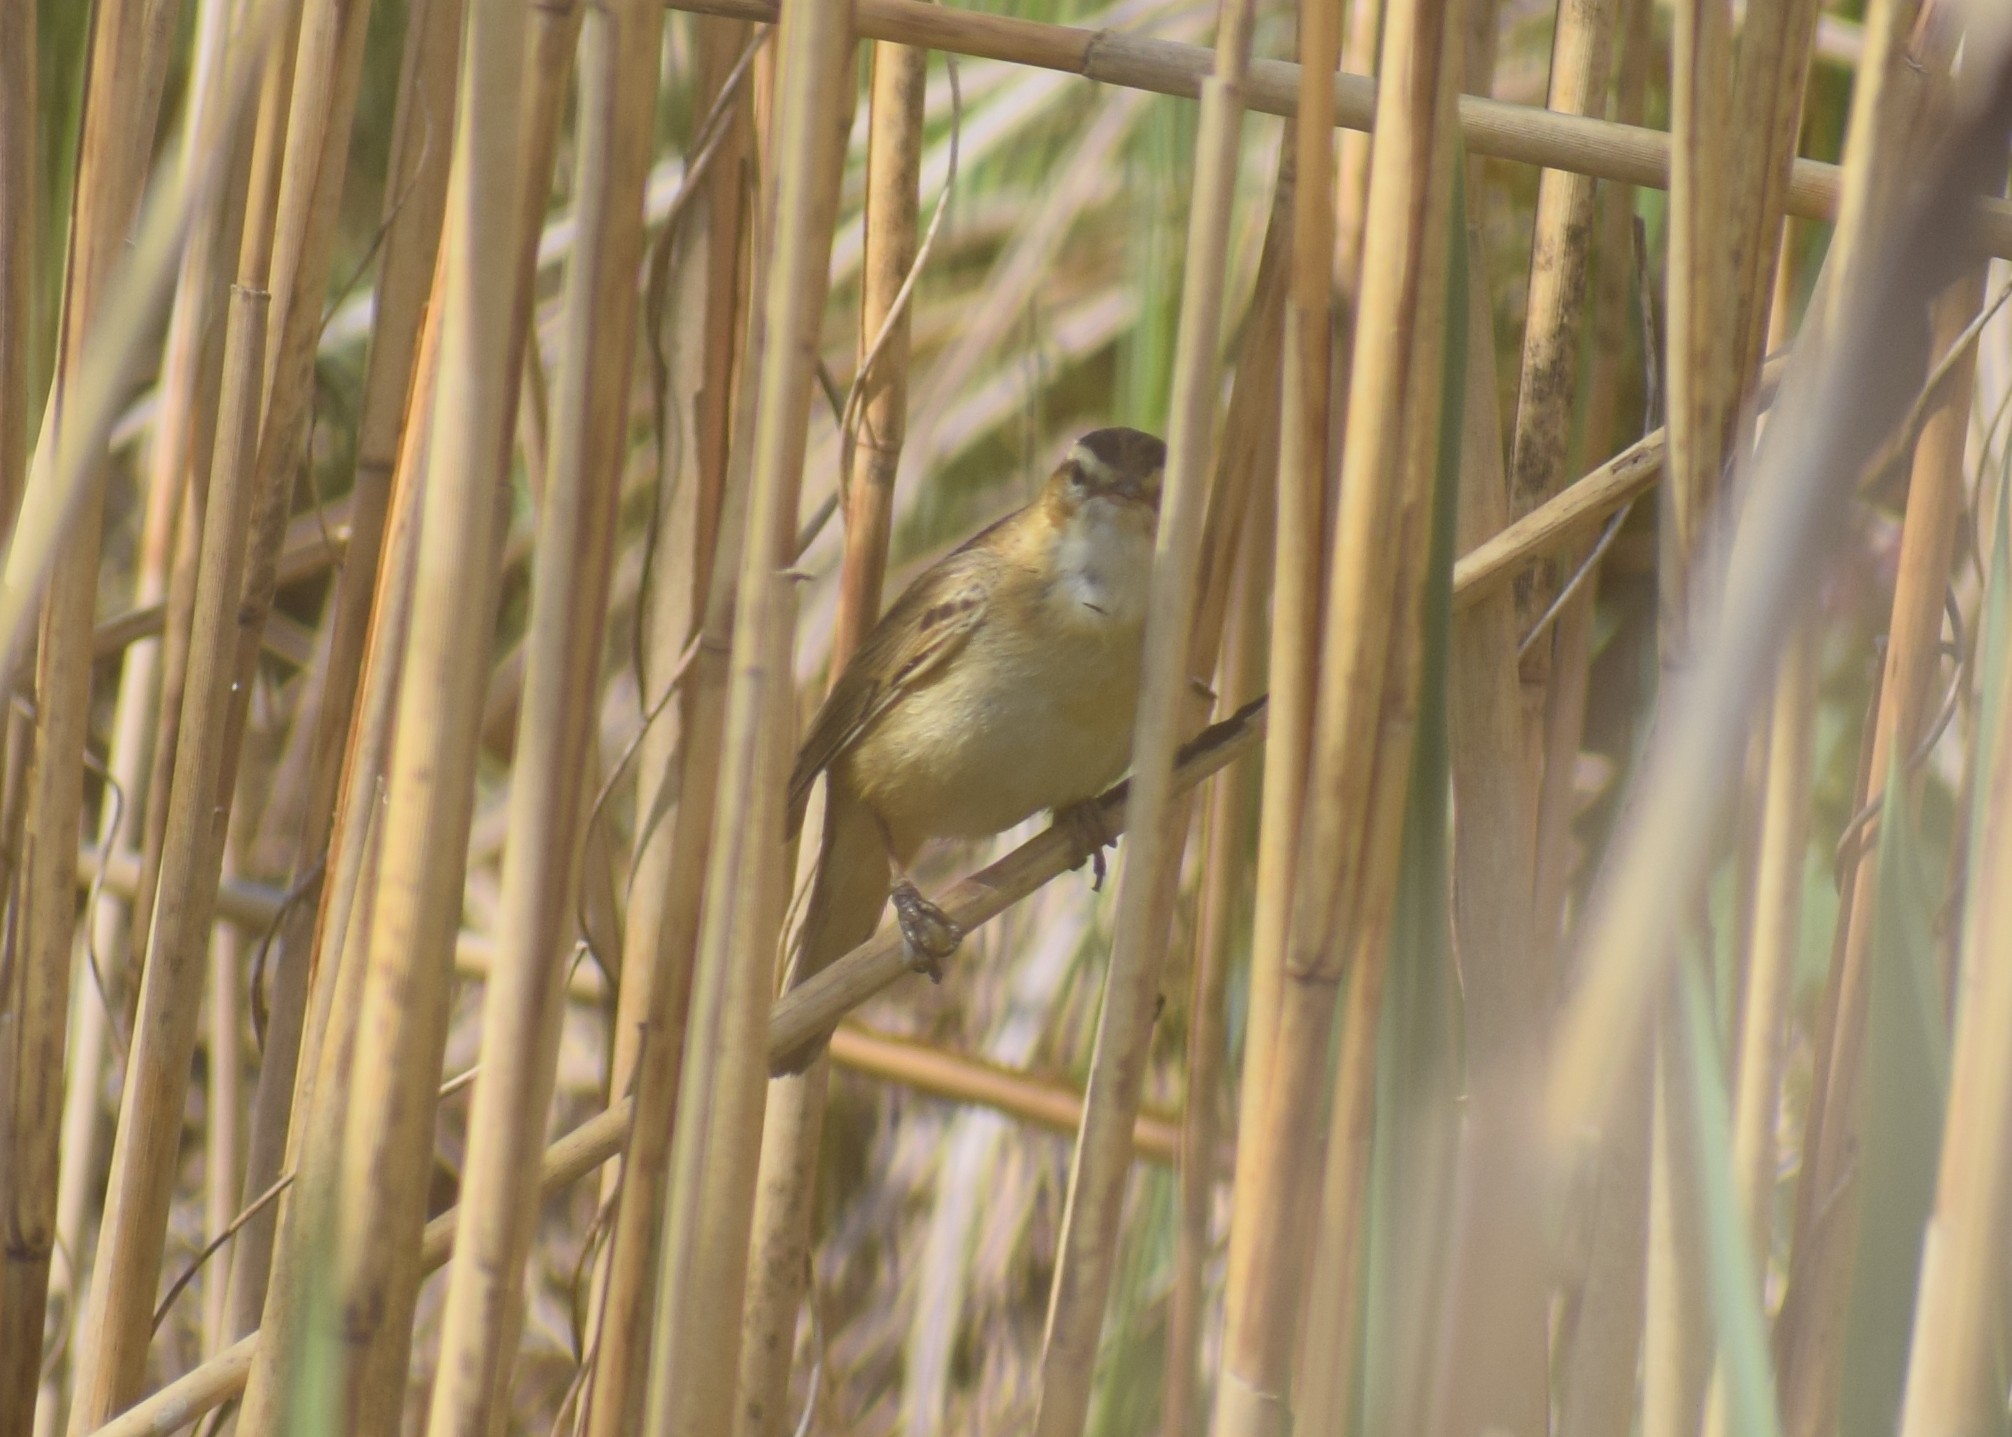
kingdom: Animalia
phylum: Chordata
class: Aves
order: Passeriformes
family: Acrocephalidae
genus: Acrocephalus
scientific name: Acrocephalus schoenobaenus
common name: Sedge warbler
